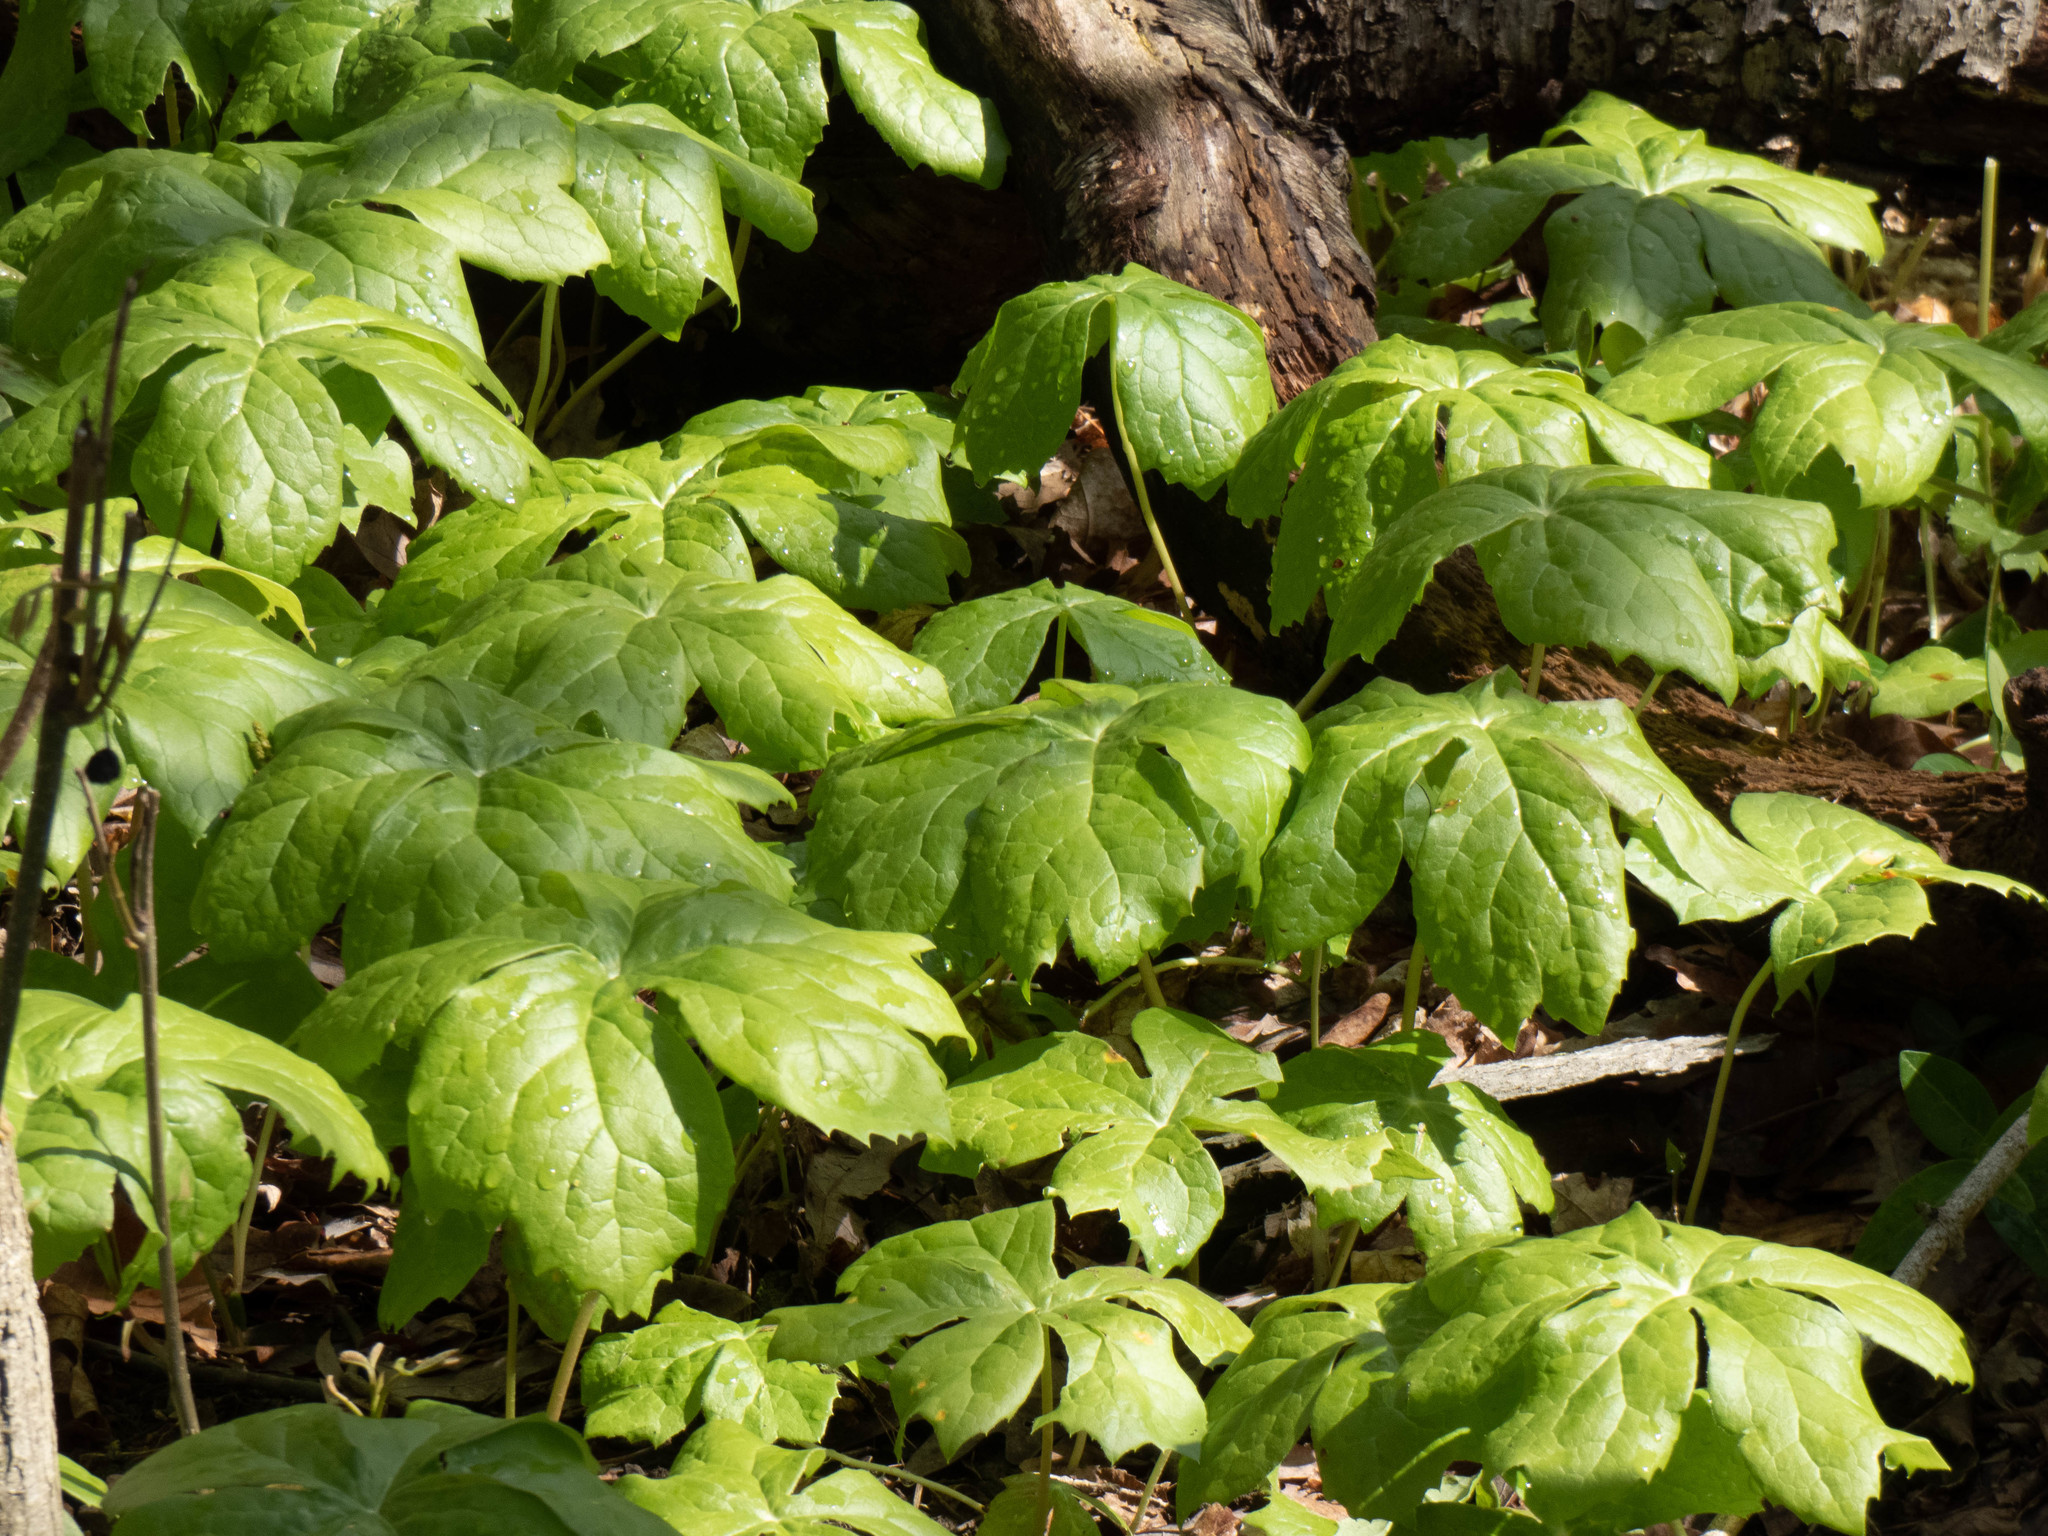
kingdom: Plantae
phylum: Tracheophyta
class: Magnoliopsida
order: Ranunculales
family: Berberidaceae
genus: Podophyllum
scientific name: Podophyllum peltatum
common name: Wild mandrake
